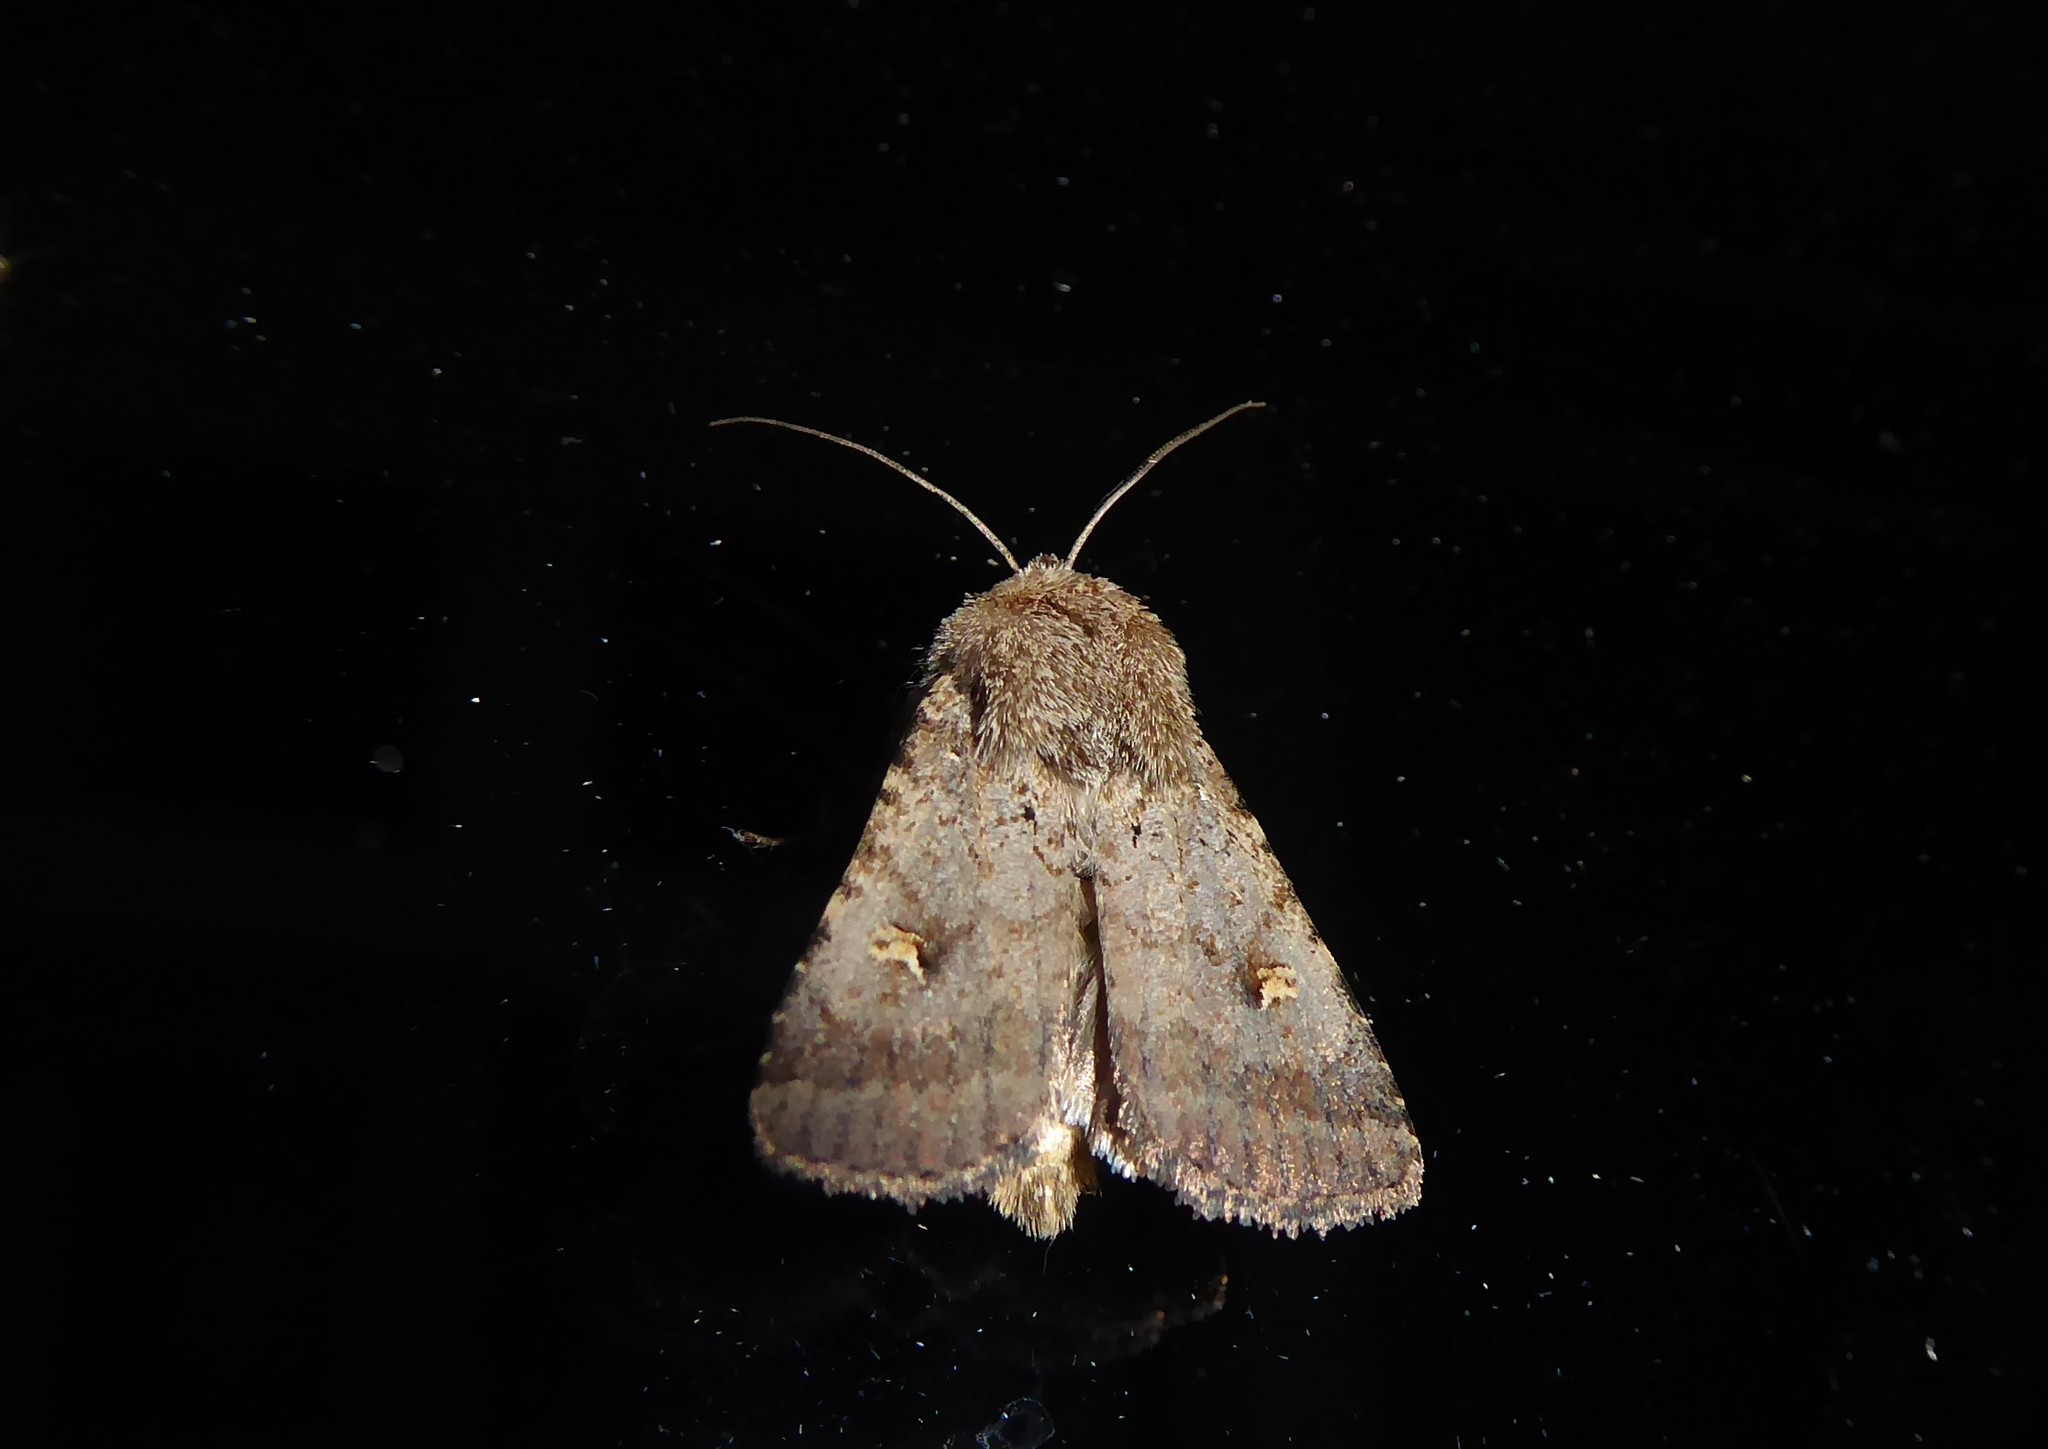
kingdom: Animalia
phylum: Arthropoda
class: Insecta
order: Lepidoptera
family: Noctuidae
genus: Proteuxoa
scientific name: Proteuxoa tetronycha
